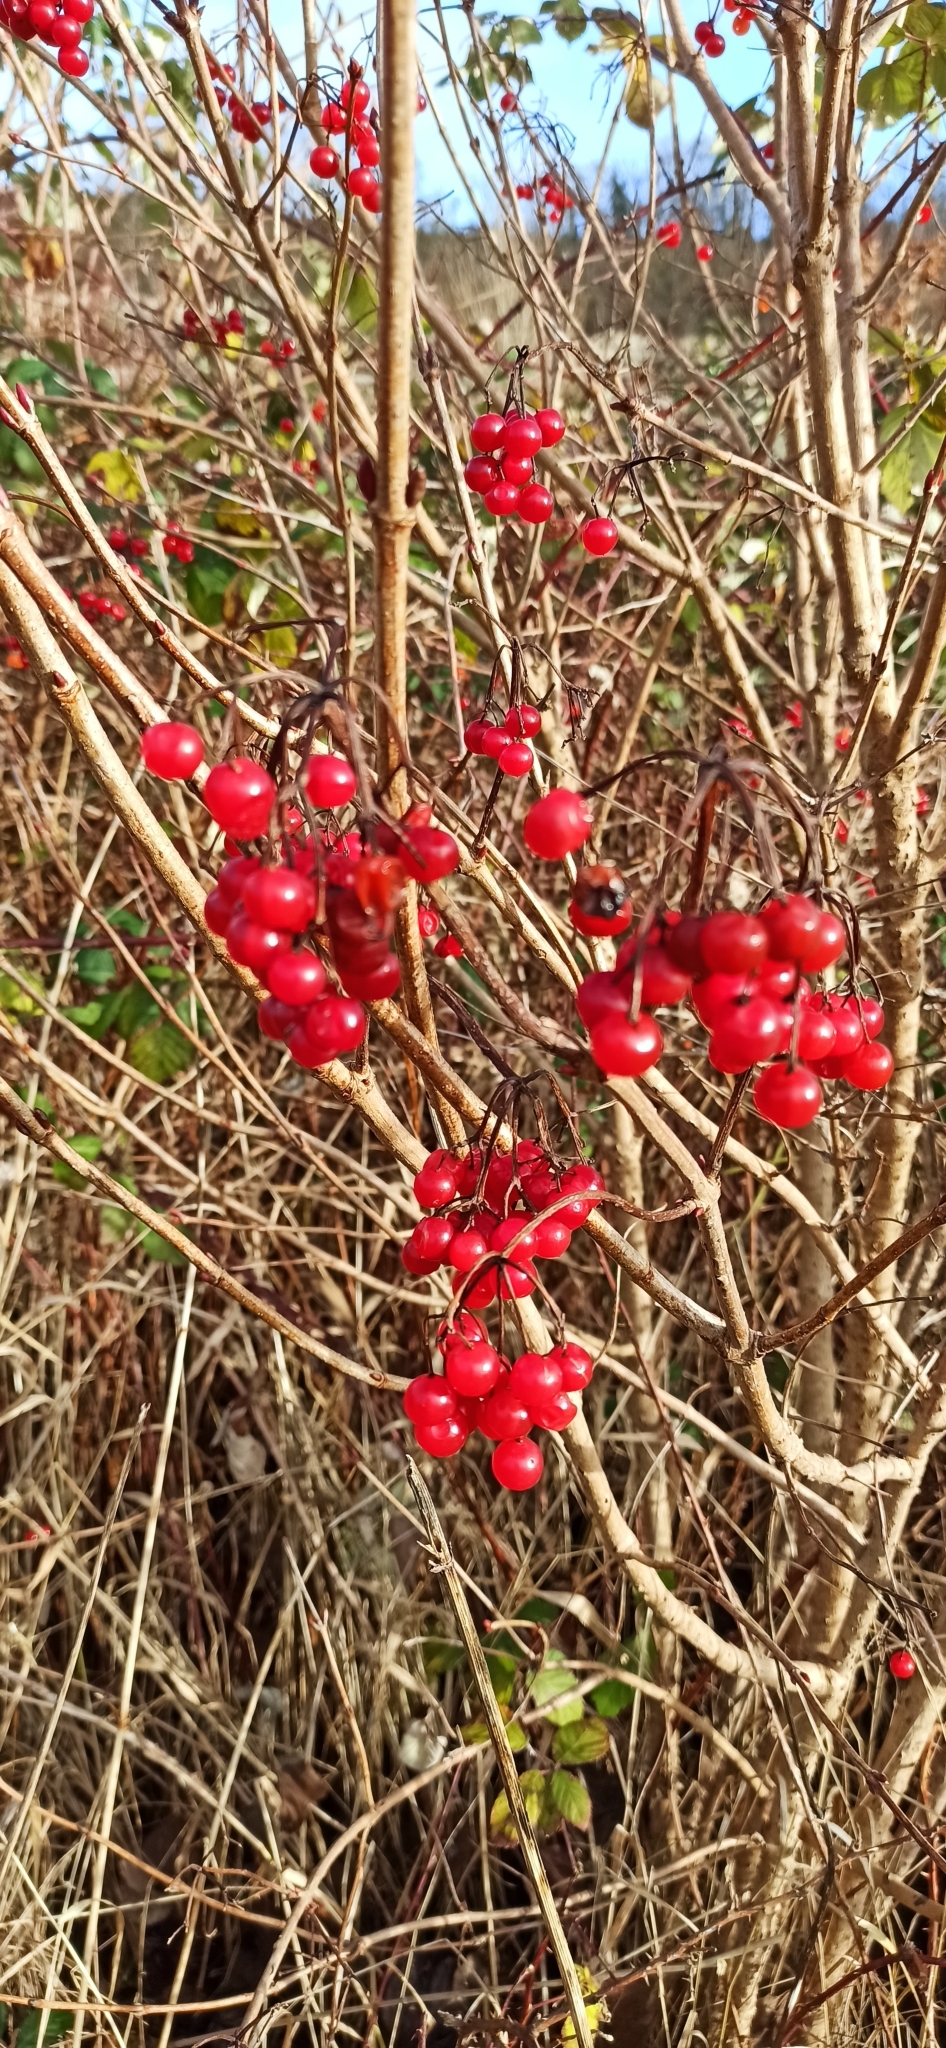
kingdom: Plantae
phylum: Tracheophyta
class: Magnoliopsida
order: Dipsacales
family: Viburnaceae
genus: Viburnum
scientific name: Viburnum opulus
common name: Guelder-rose
